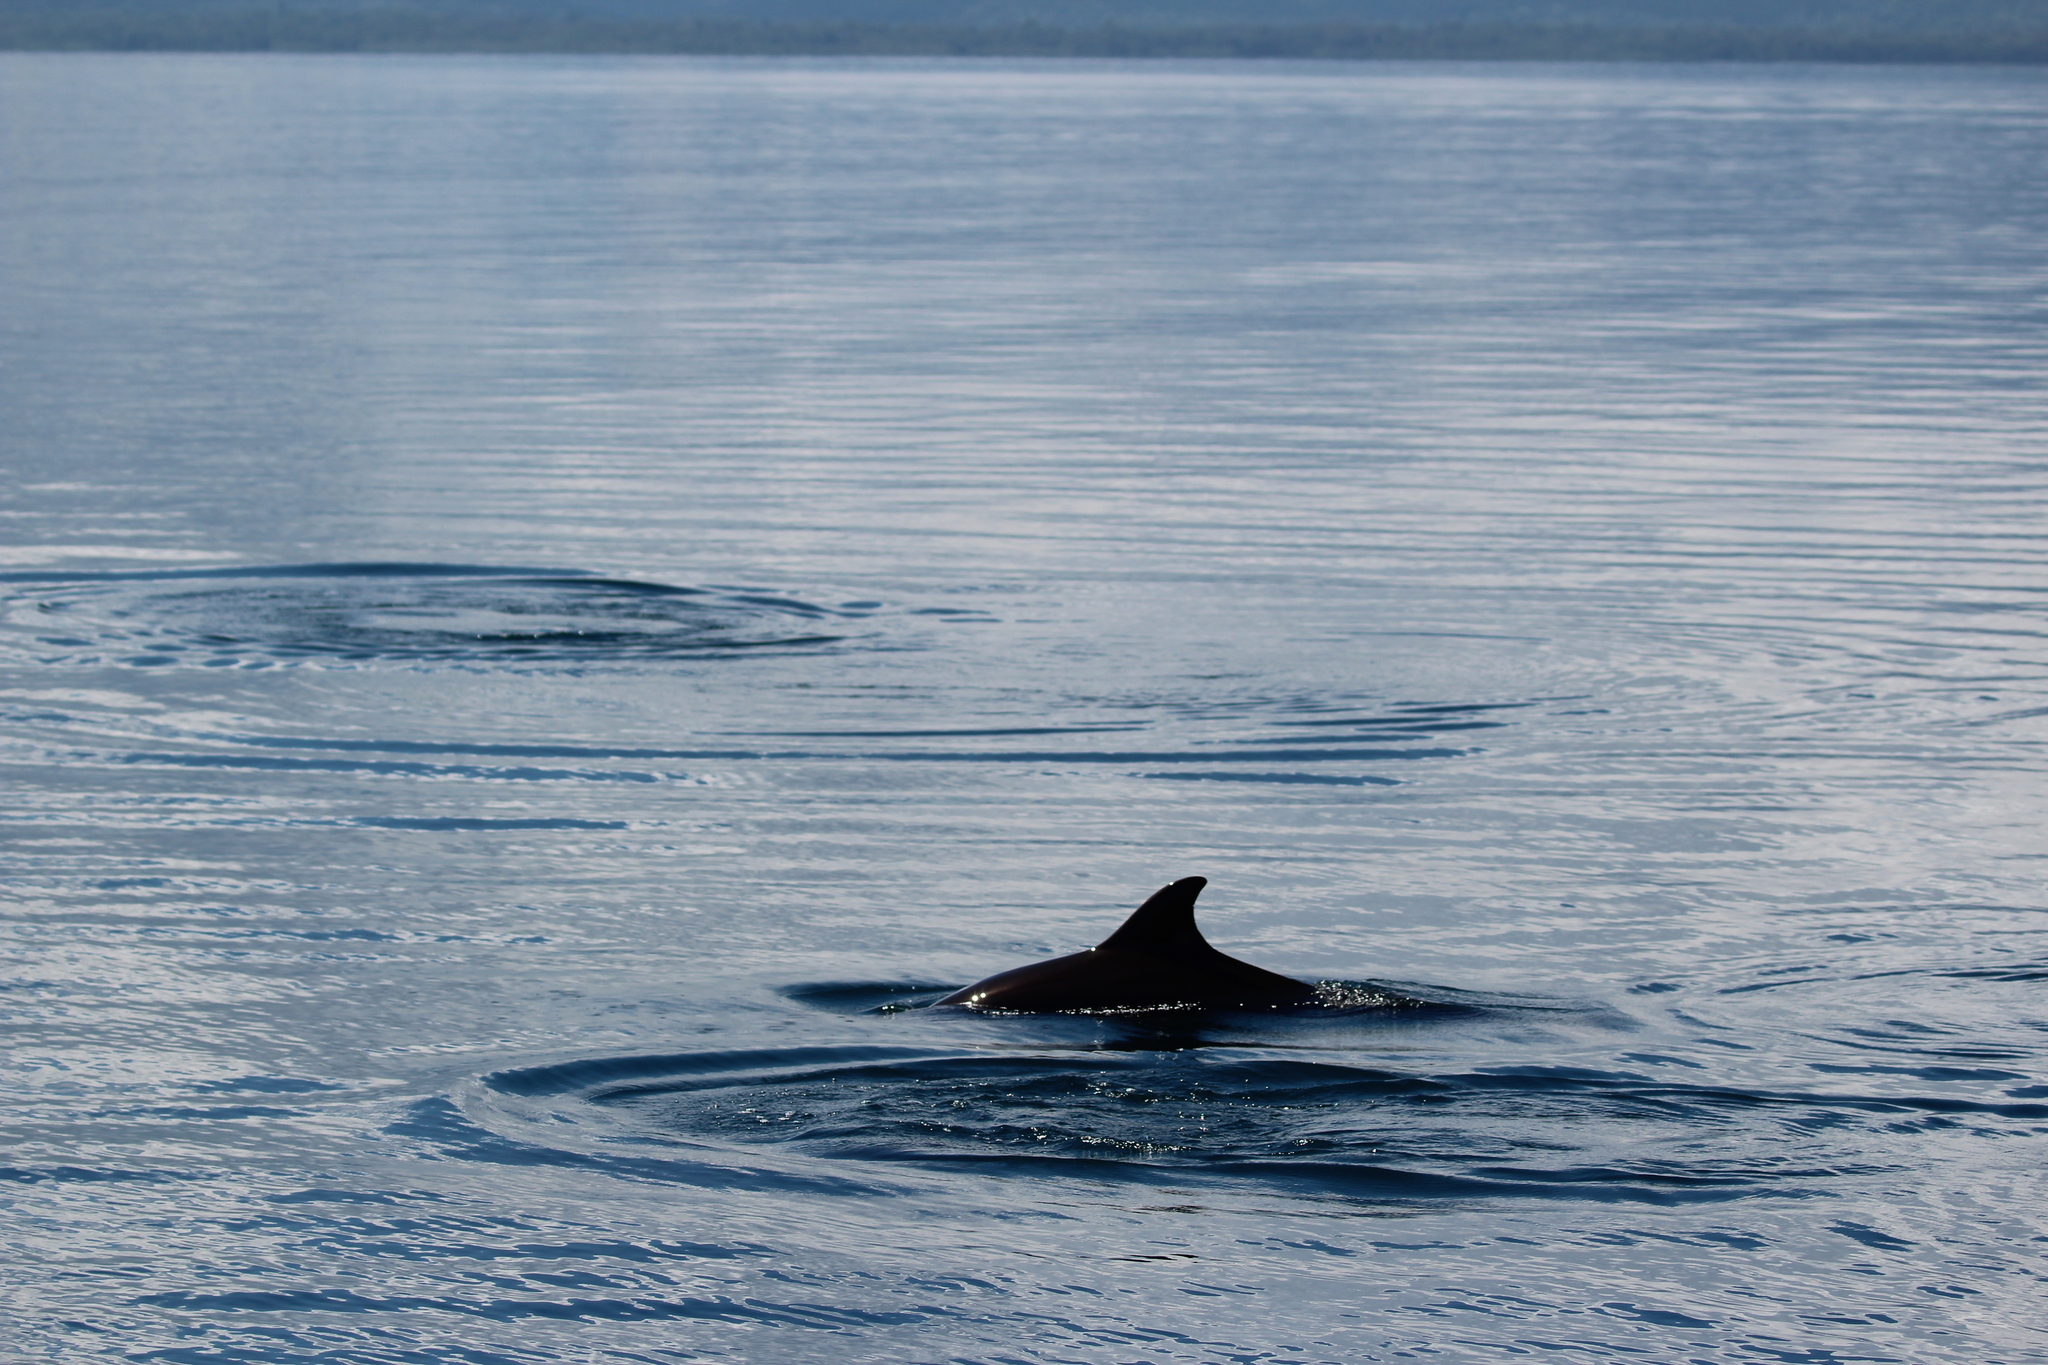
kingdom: Animalia
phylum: Chordata
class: Mammalia
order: Cetacea
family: Delphinidae
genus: Tursiops
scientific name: Tursiops truncatus
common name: Bottlenose dolphin
